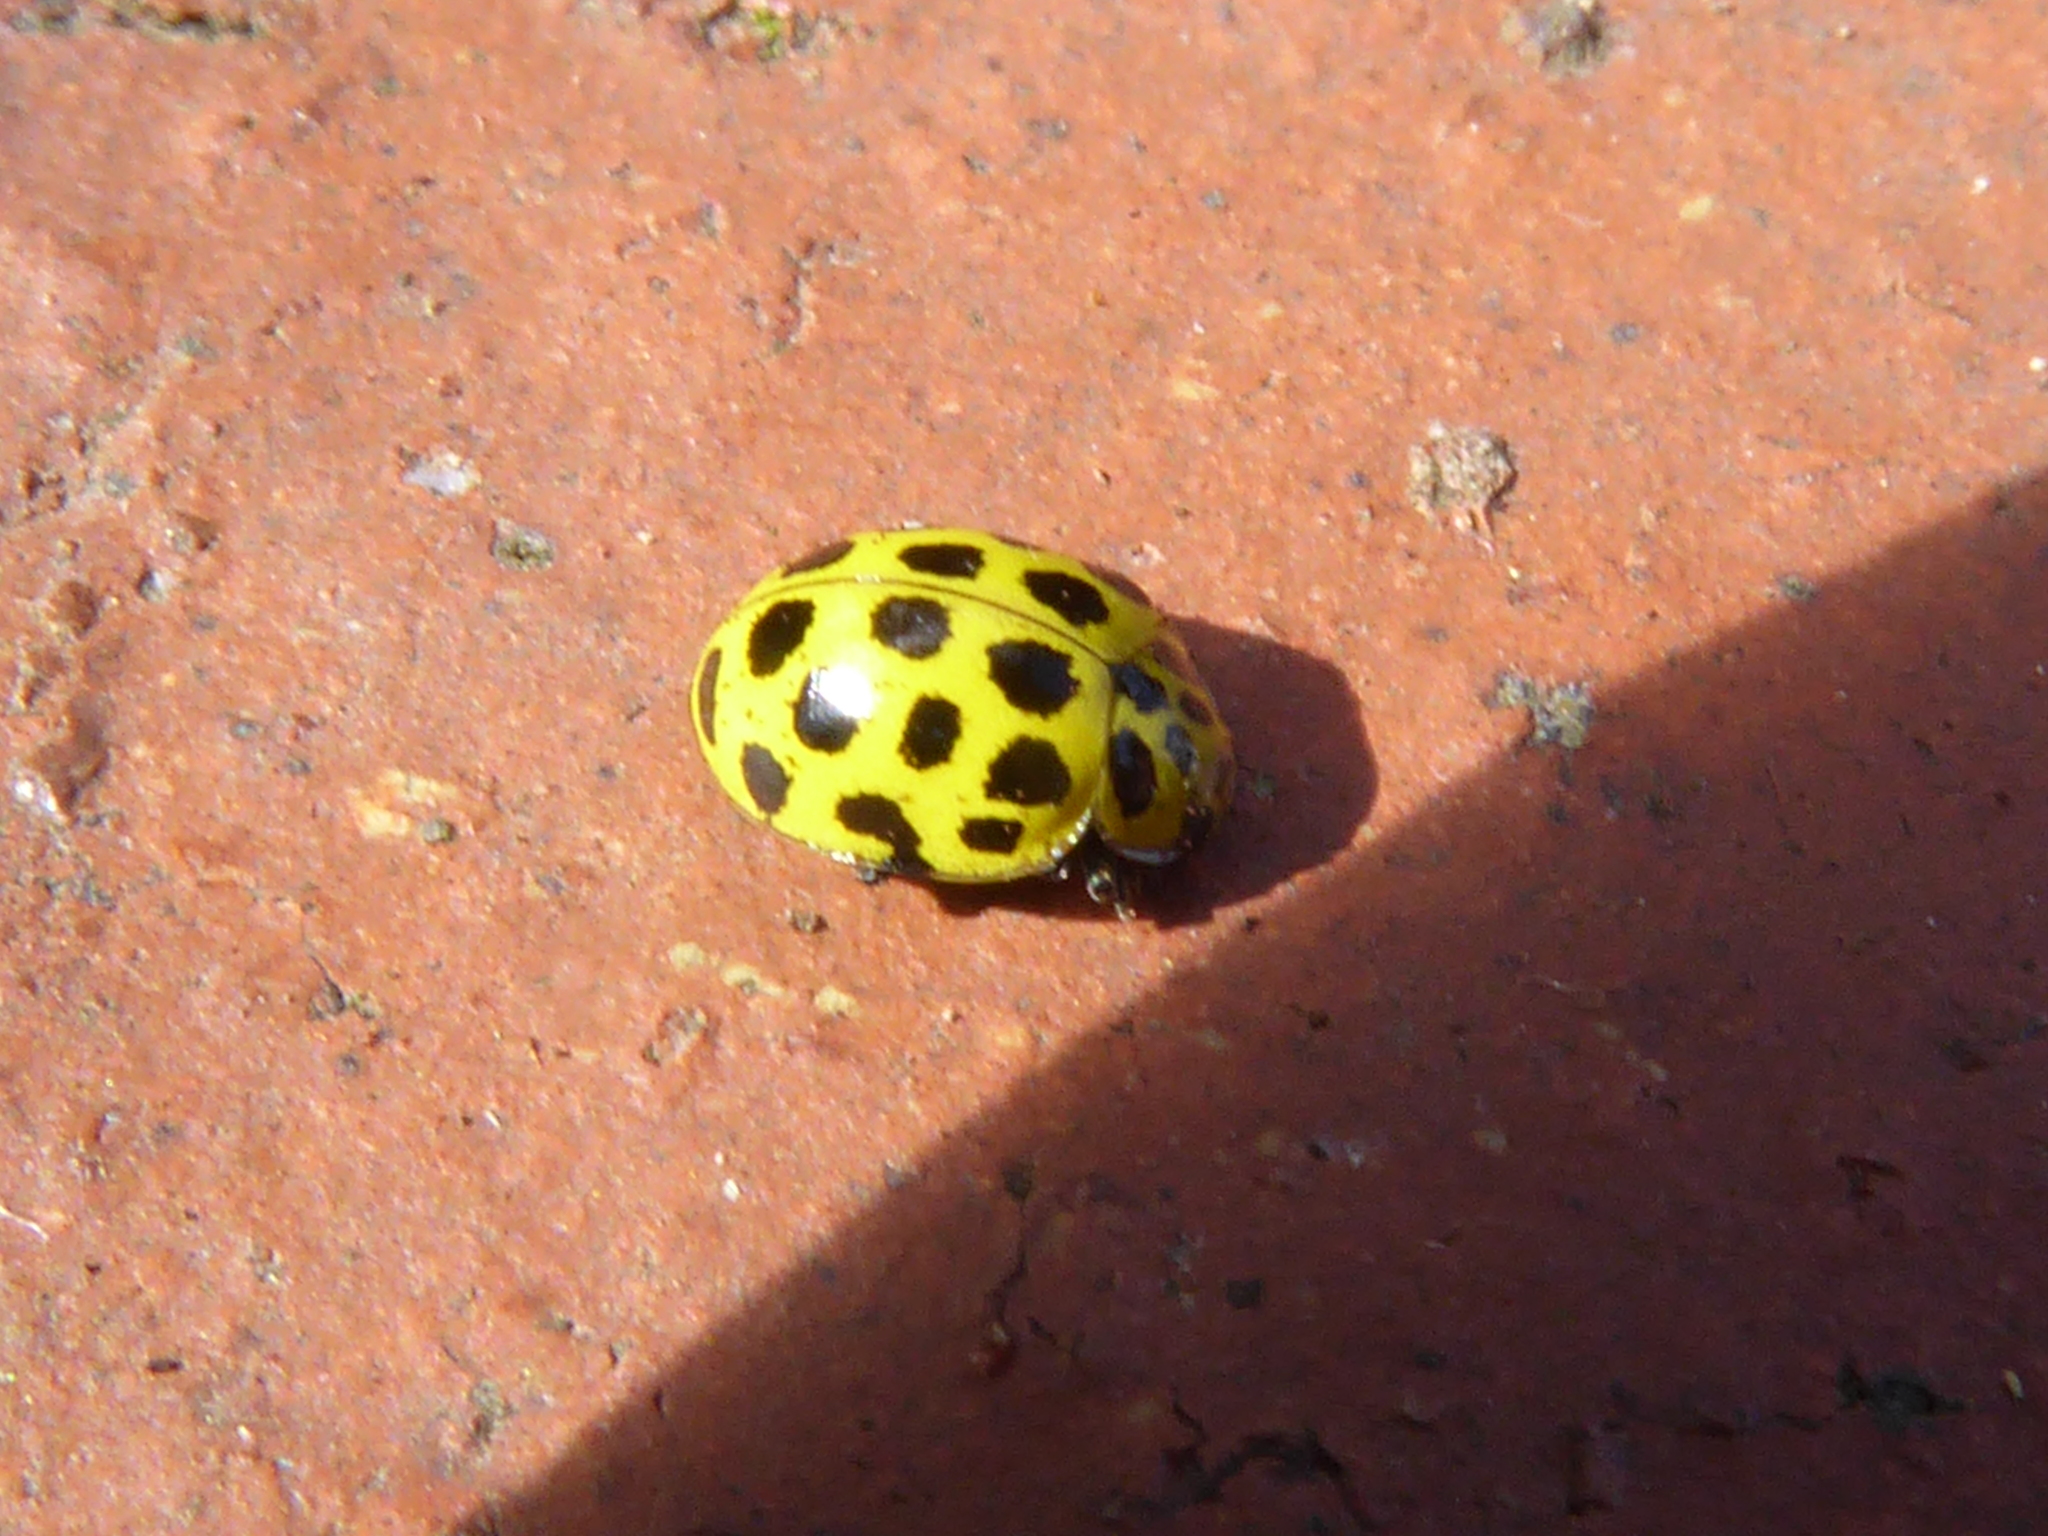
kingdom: Animalia
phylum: Arthropoda
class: Insecta
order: Coleoptera
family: Coccinellidae
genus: Psyllobora
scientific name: Psyllobora vigintiduopunctata
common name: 22-spot ladybird
